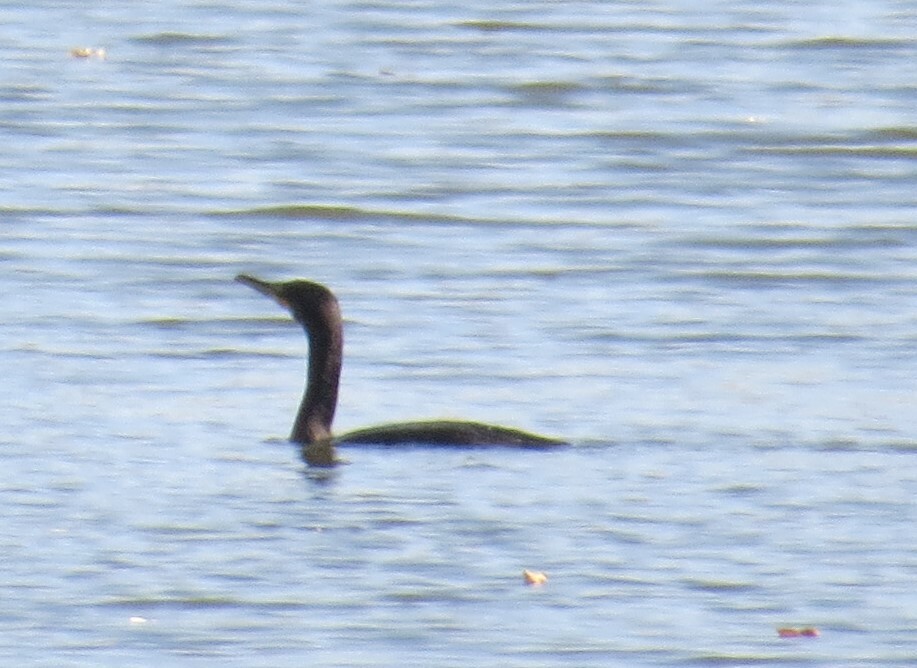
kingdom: Animalia
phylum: Chordata
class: Aves
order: Suliformes
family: Phalacrocoracidae
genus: Phalacrocorax
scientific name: Phalacrocorax auritus
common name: Double-crested cormorant
